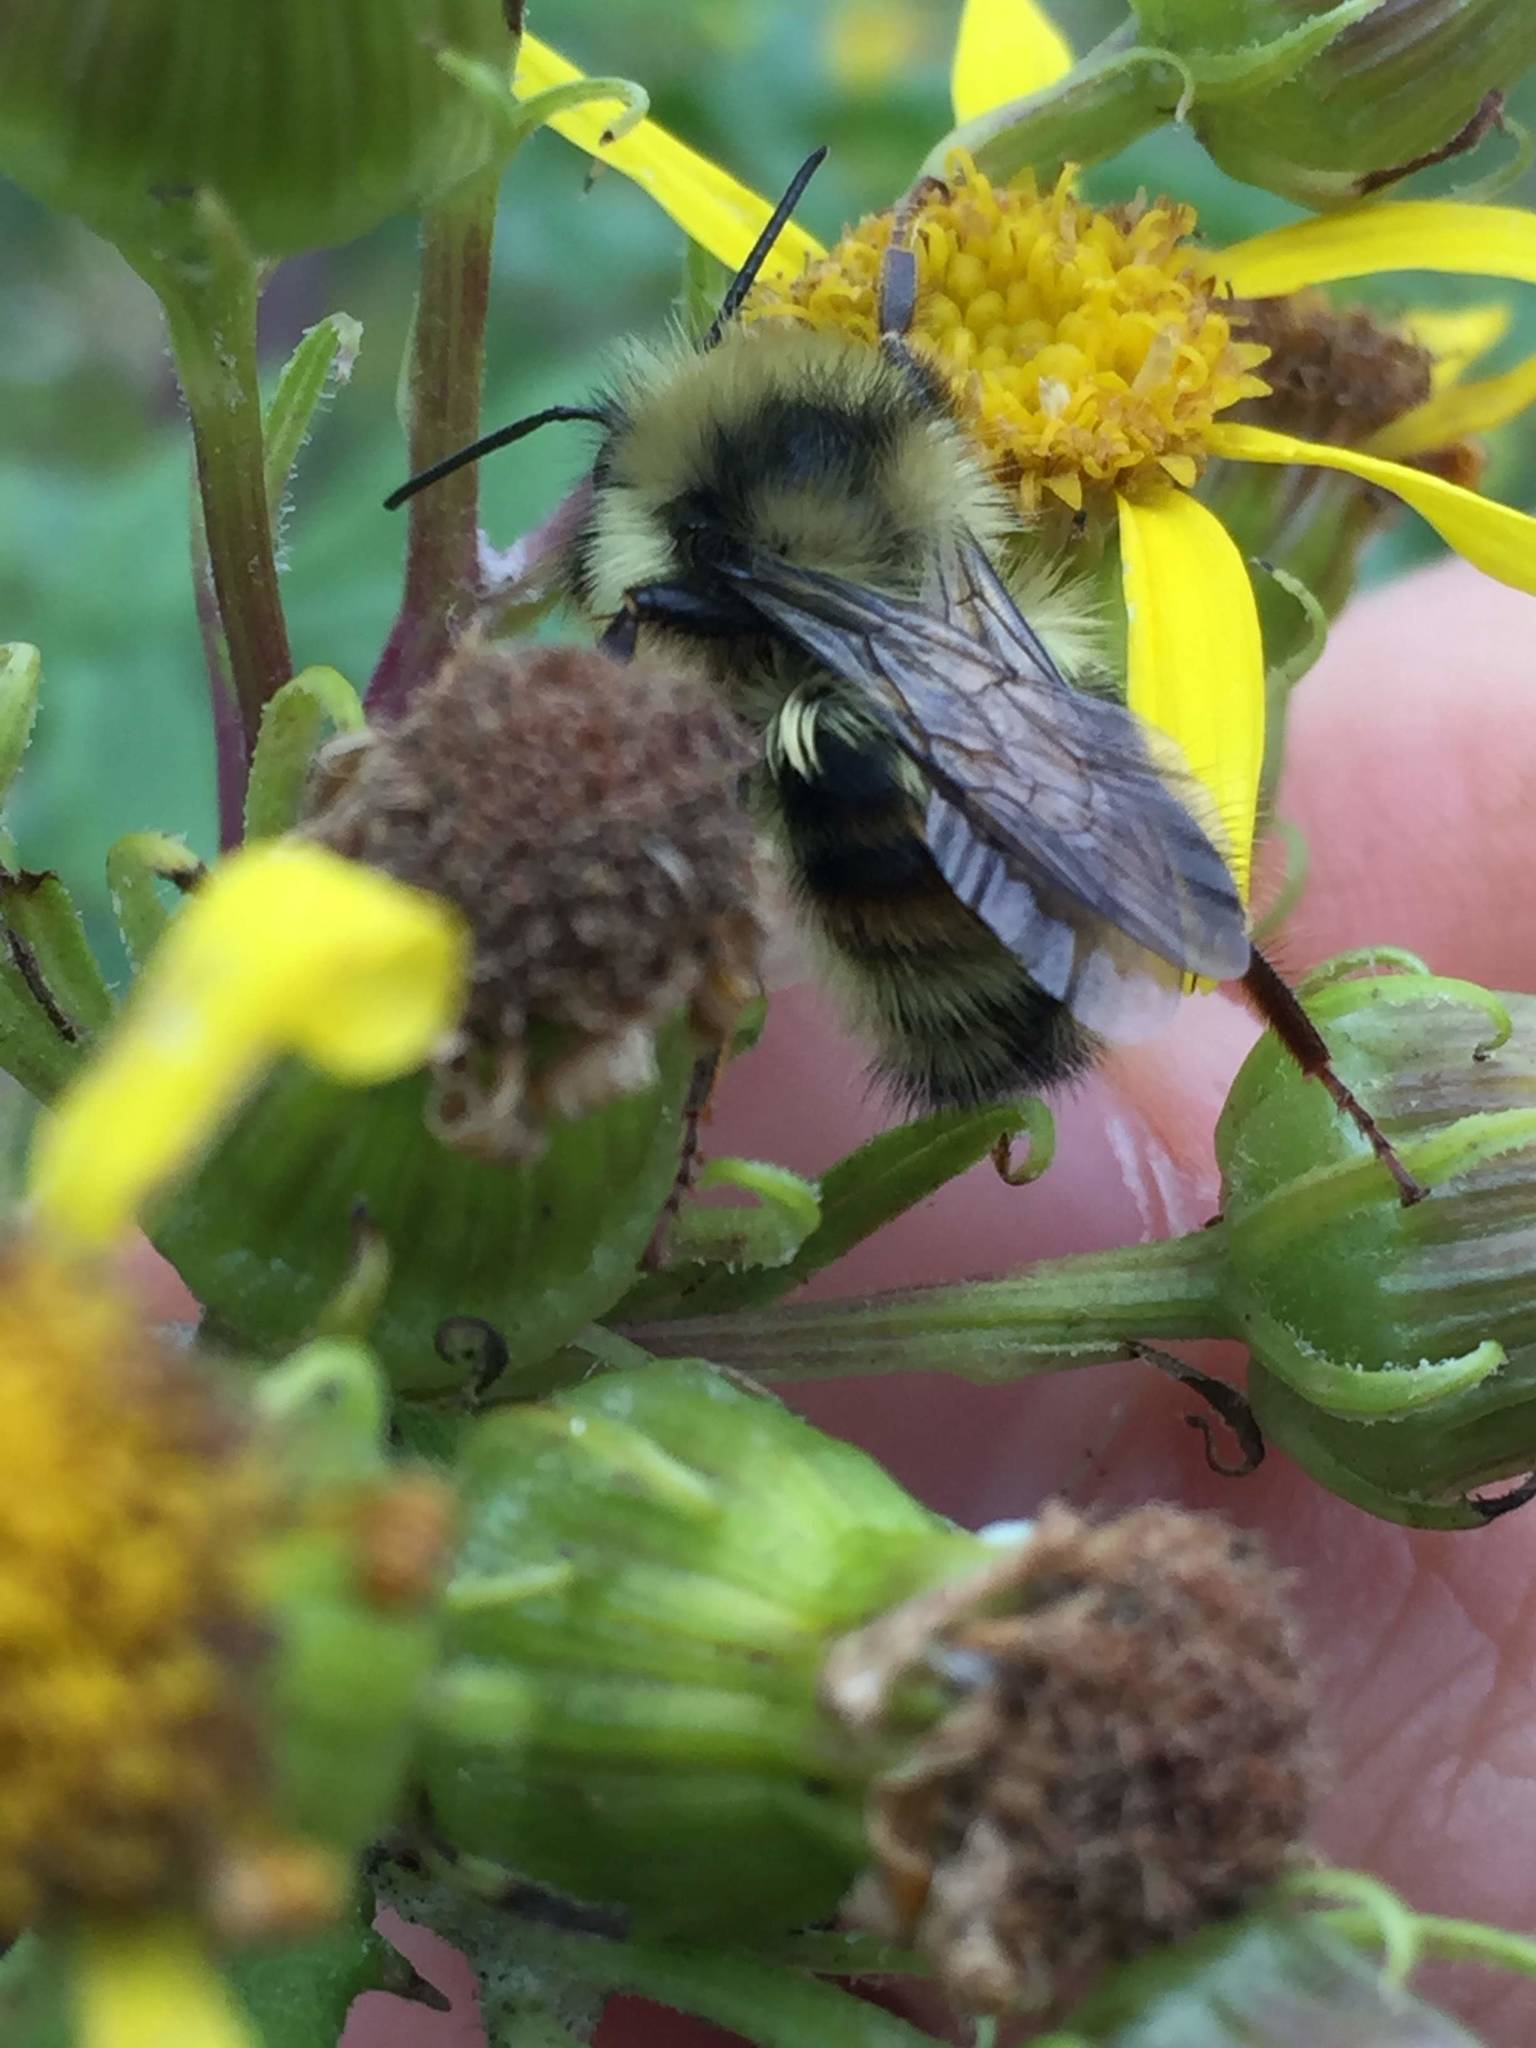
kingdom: Animalia
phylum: Arthropoda
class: Insecta
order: Hymenoptera
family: Apidae
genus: Bombus
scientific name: Bombus vancouverensis
